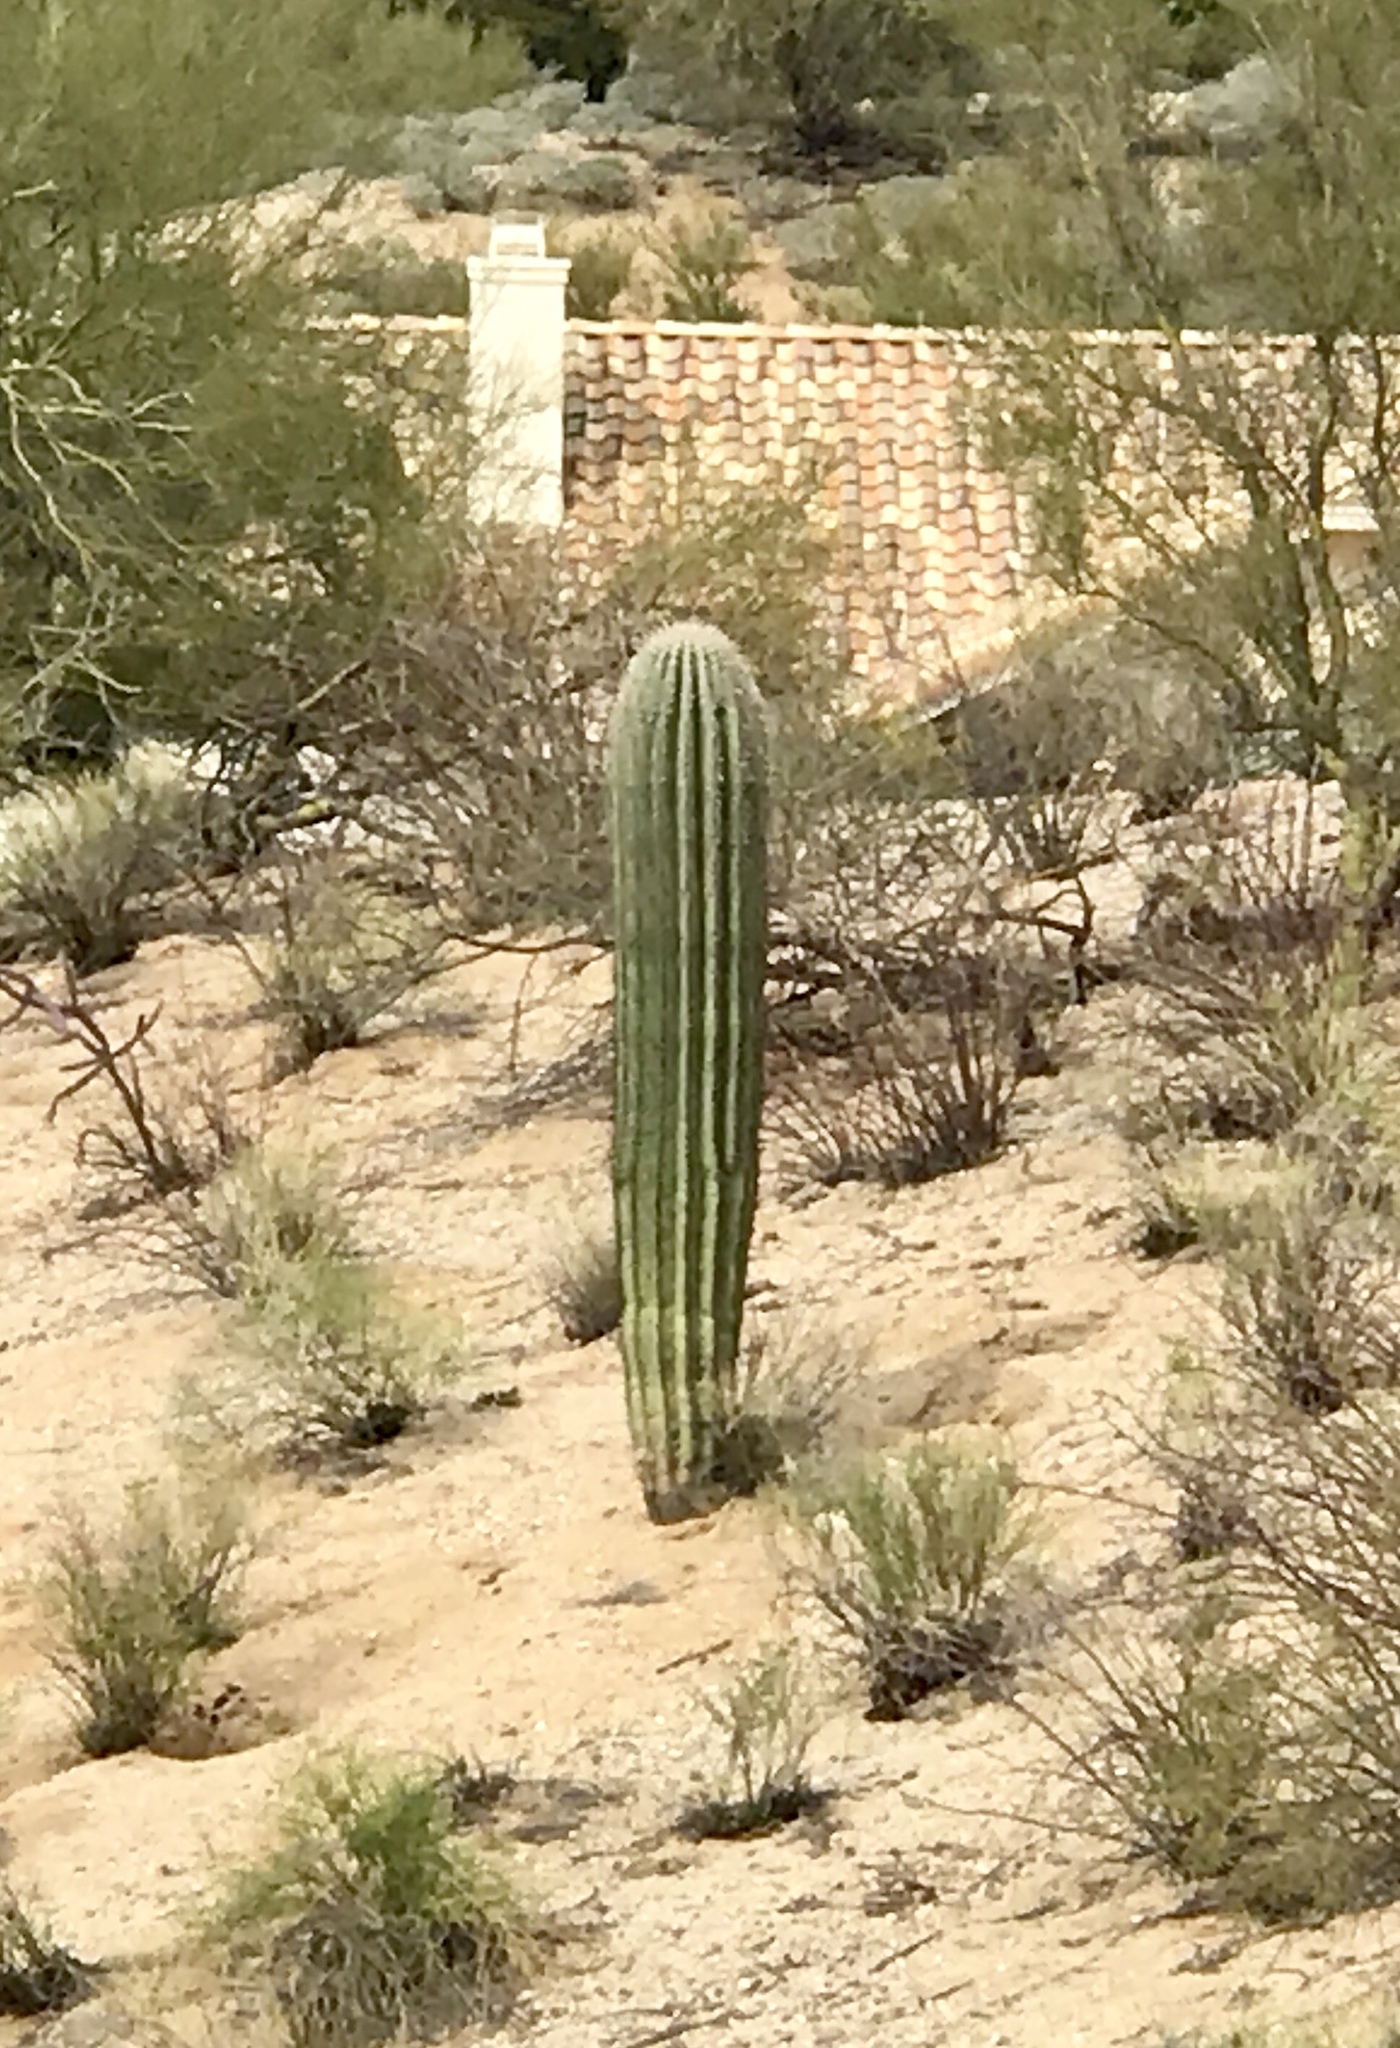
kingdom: Plantae
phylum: Tracheophyta
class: Magnoliopsida
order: Caryophyllales
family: Cactaceae
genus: Carnegiea
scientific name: Carnegiea gigantea
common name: Saguaro
